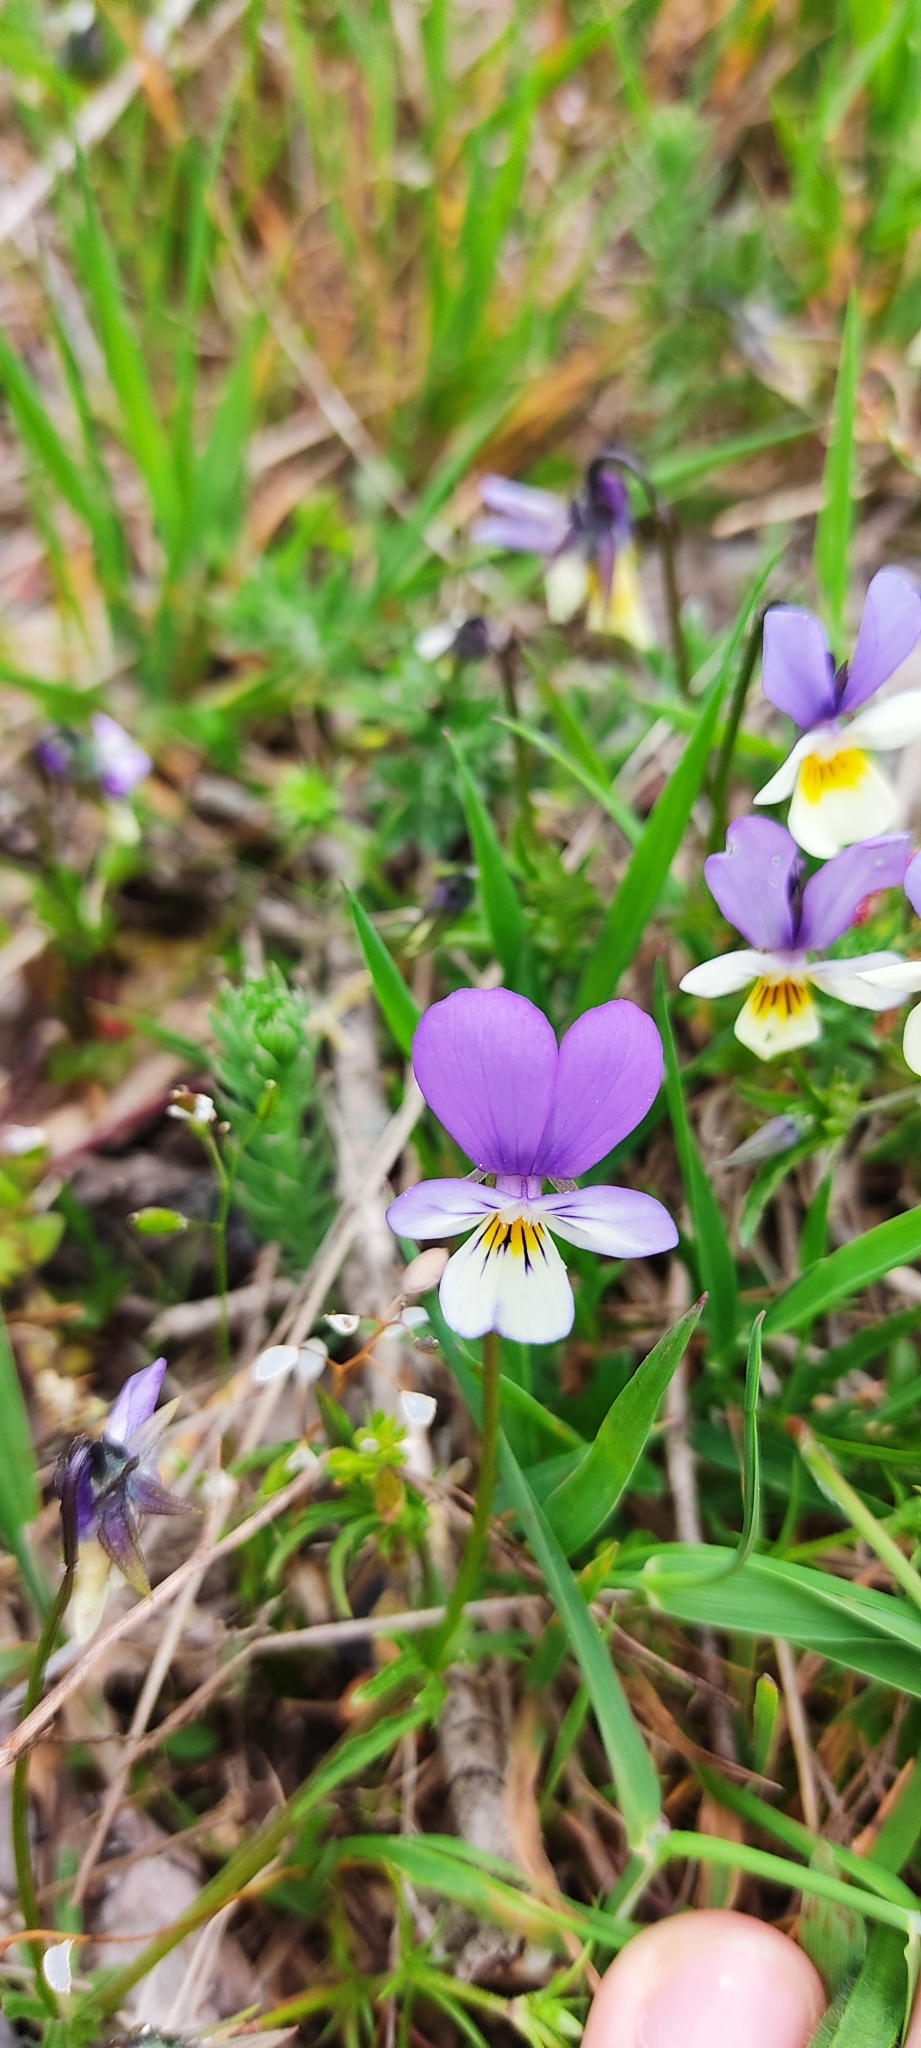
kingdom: Plantae
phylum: Tracheophyta
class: Magnoliopsida
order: Malpighiales
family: Violaceae
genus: Viola
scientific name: Viola tricolor
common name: Pansy
